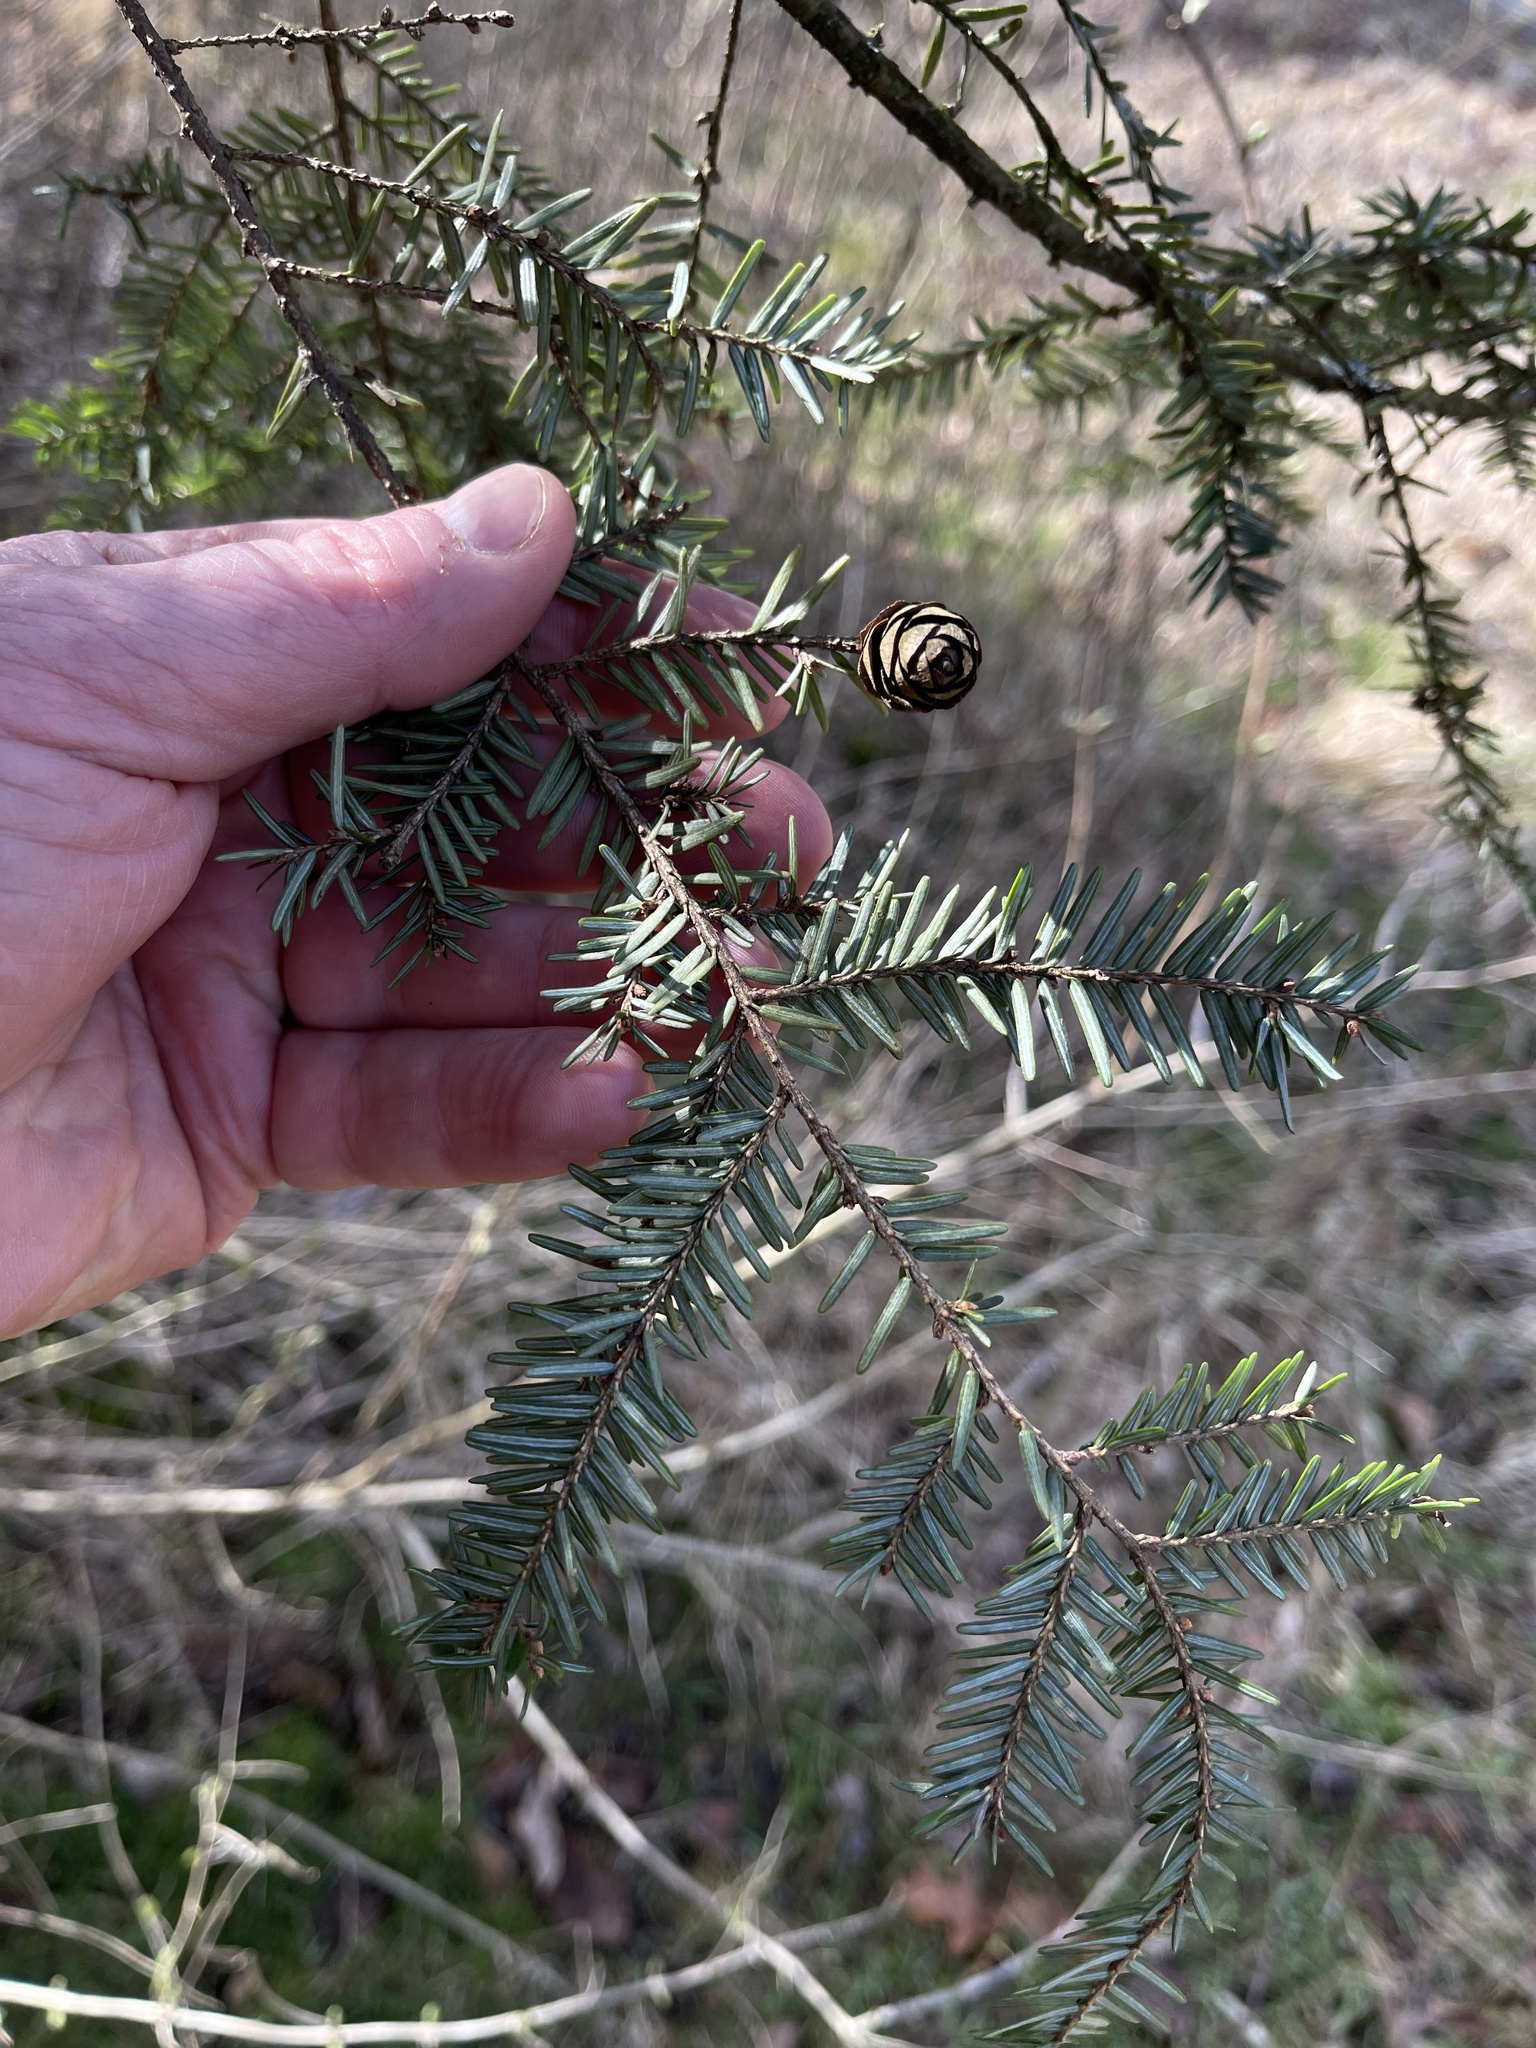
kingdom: Plantae
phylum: Tracheophyta
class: Pinopsida
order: Pinales
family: Pinaceae
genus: Tsuga
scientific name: Tsuga canadensis
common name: Eastern hemlock
